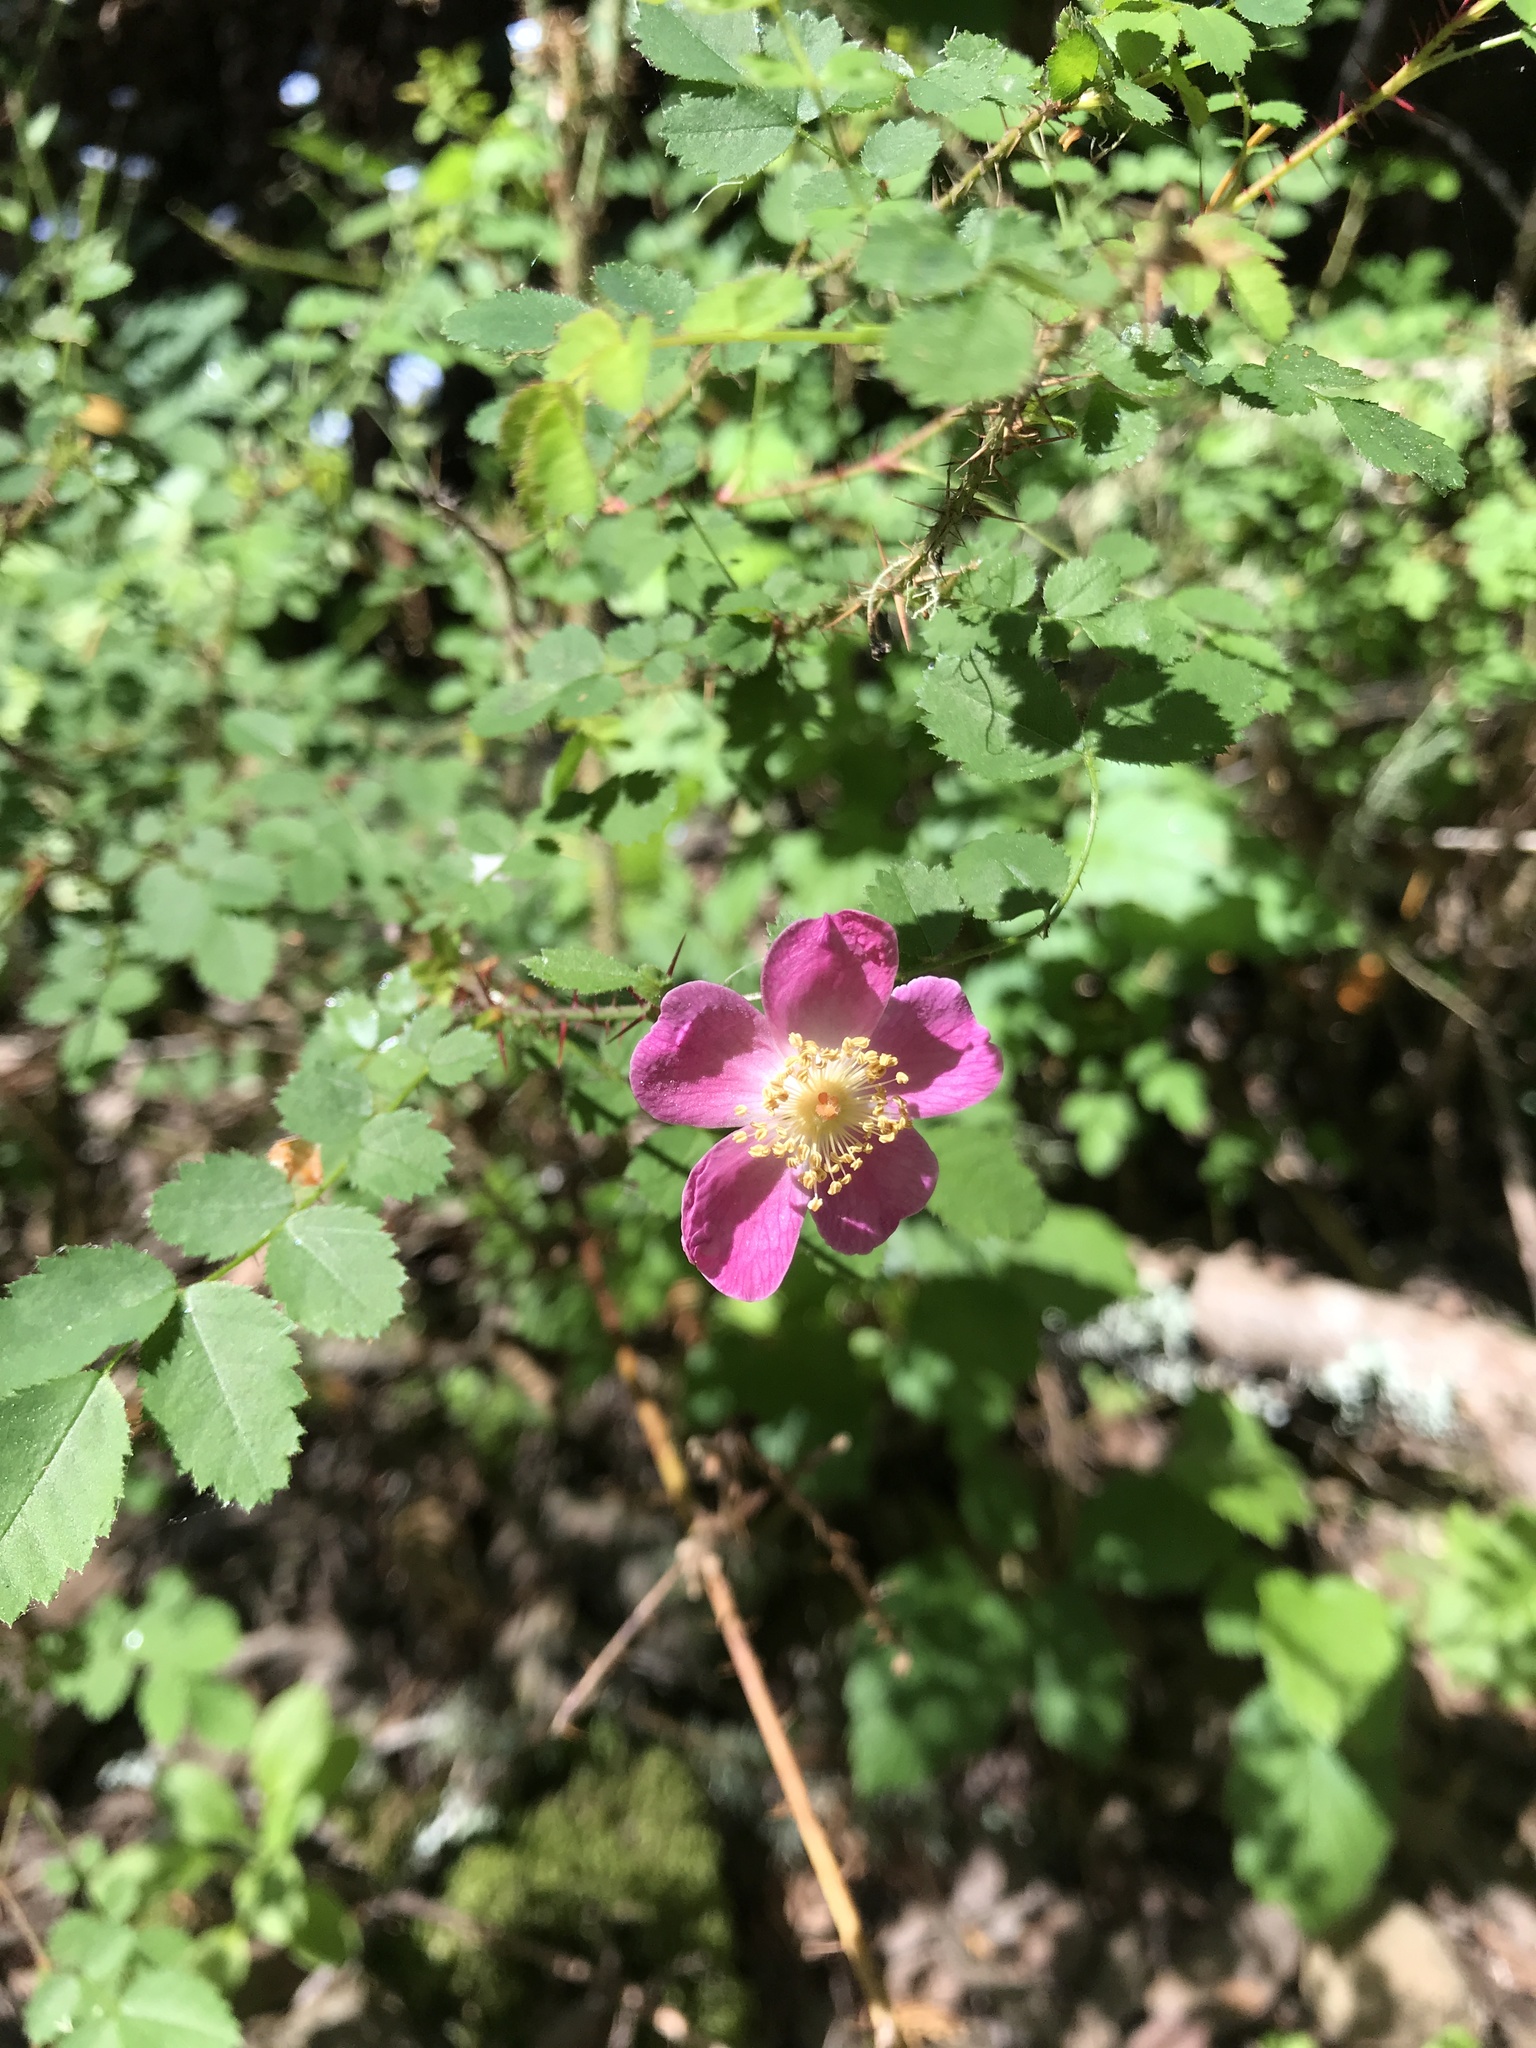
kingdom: Plantae
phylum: Tracheophyta
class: Magnoliopsida
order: Rosales
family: Rosaceae
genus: Rosa
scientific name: Rosa gymnocarpa
